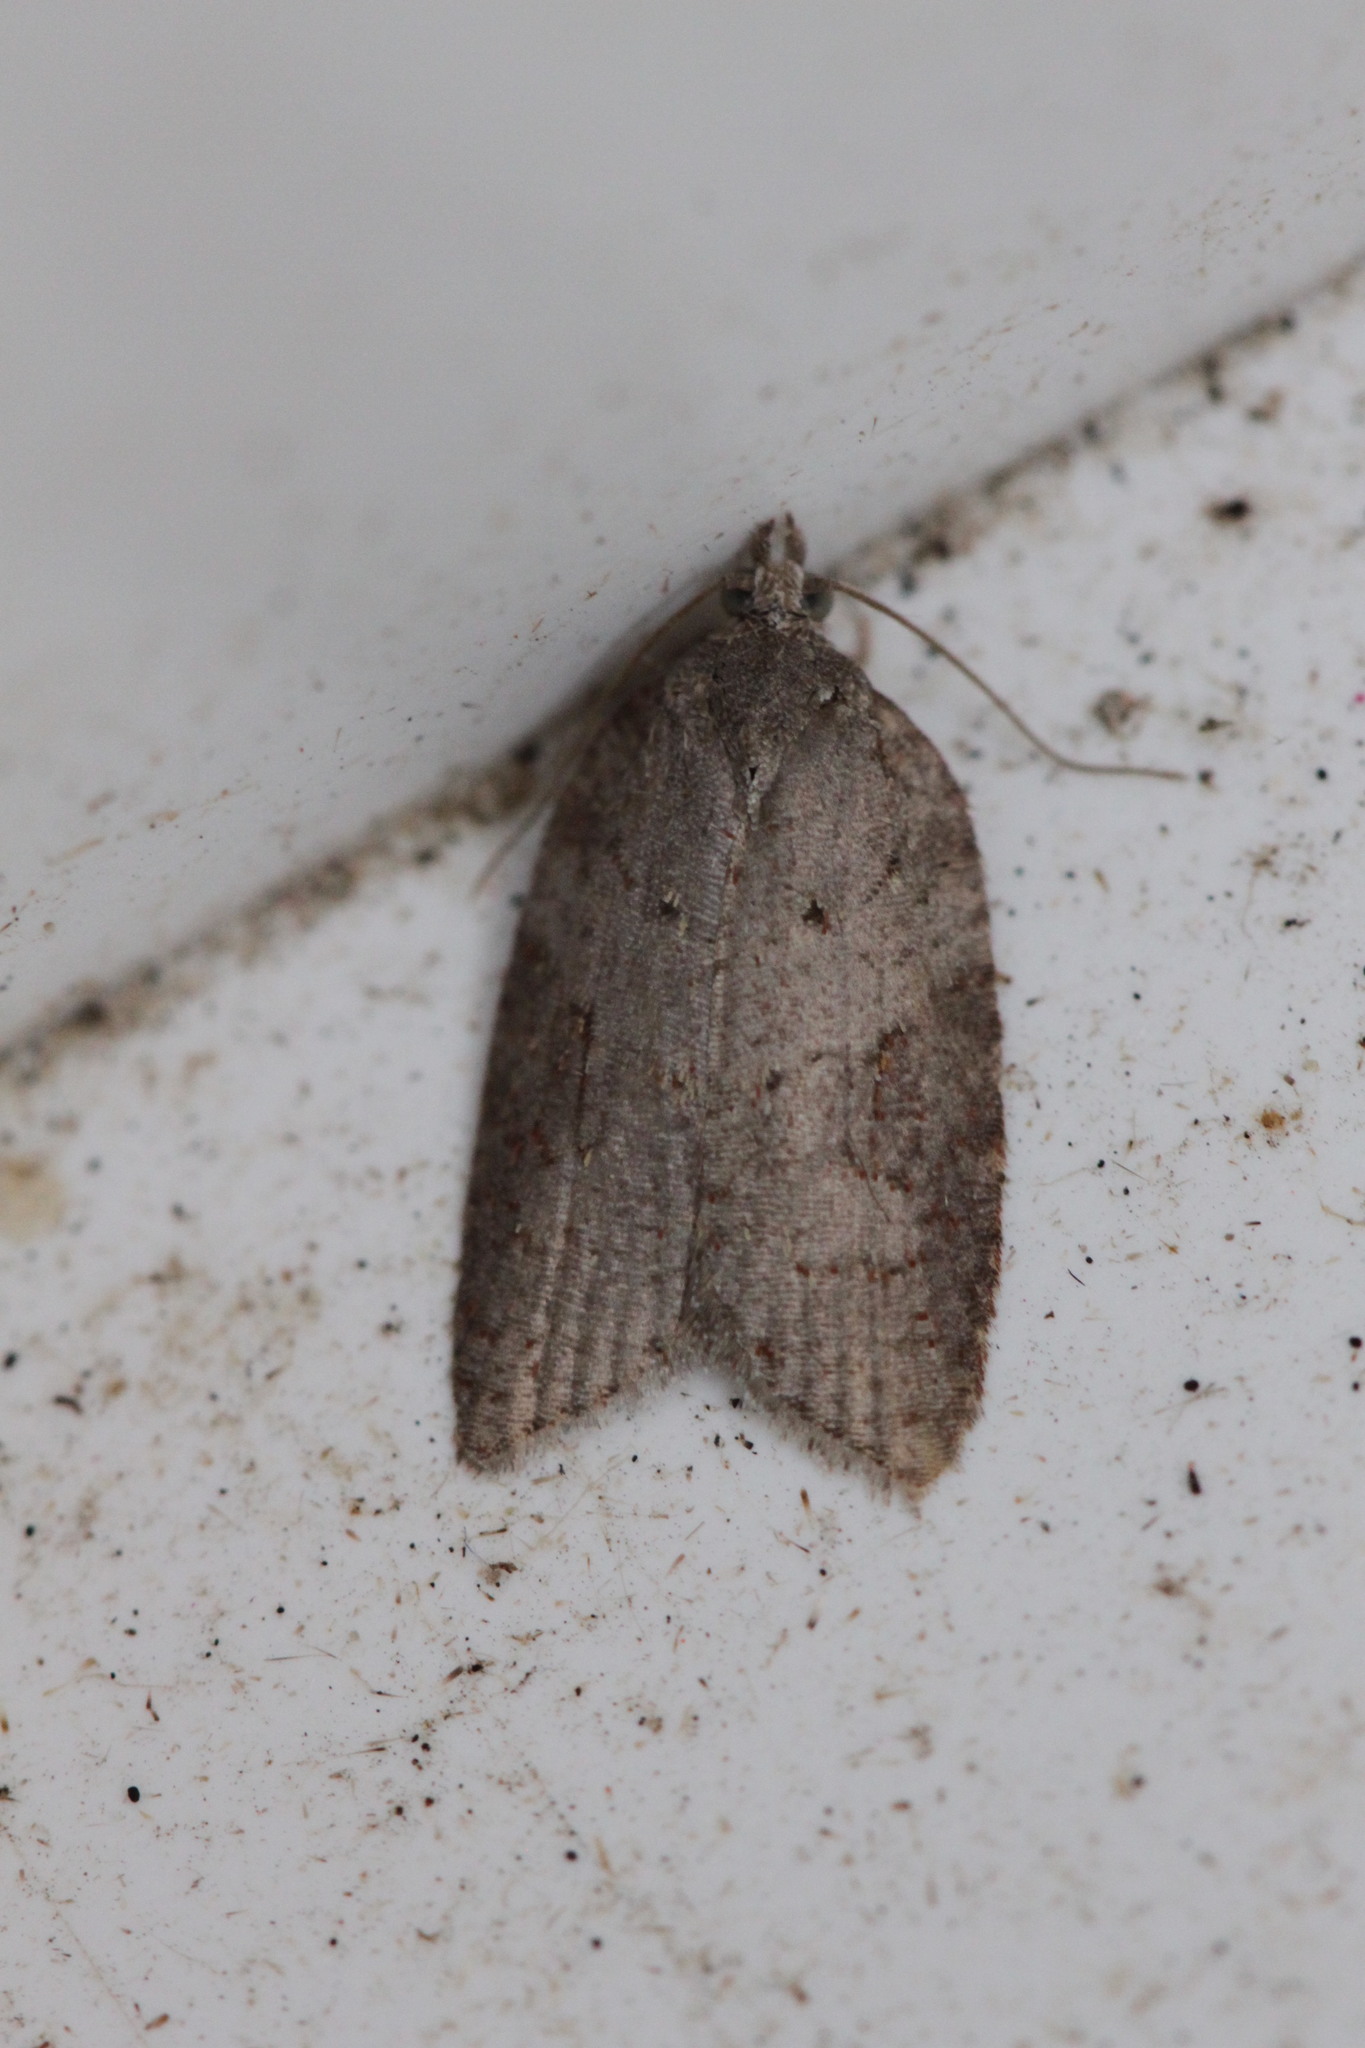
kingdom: Animalia
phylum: Arthropoda
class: Insecta
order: Lepidoptera
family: Tortricidae
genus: Acleris
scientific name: Acleris sparsana
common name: Ashy button
